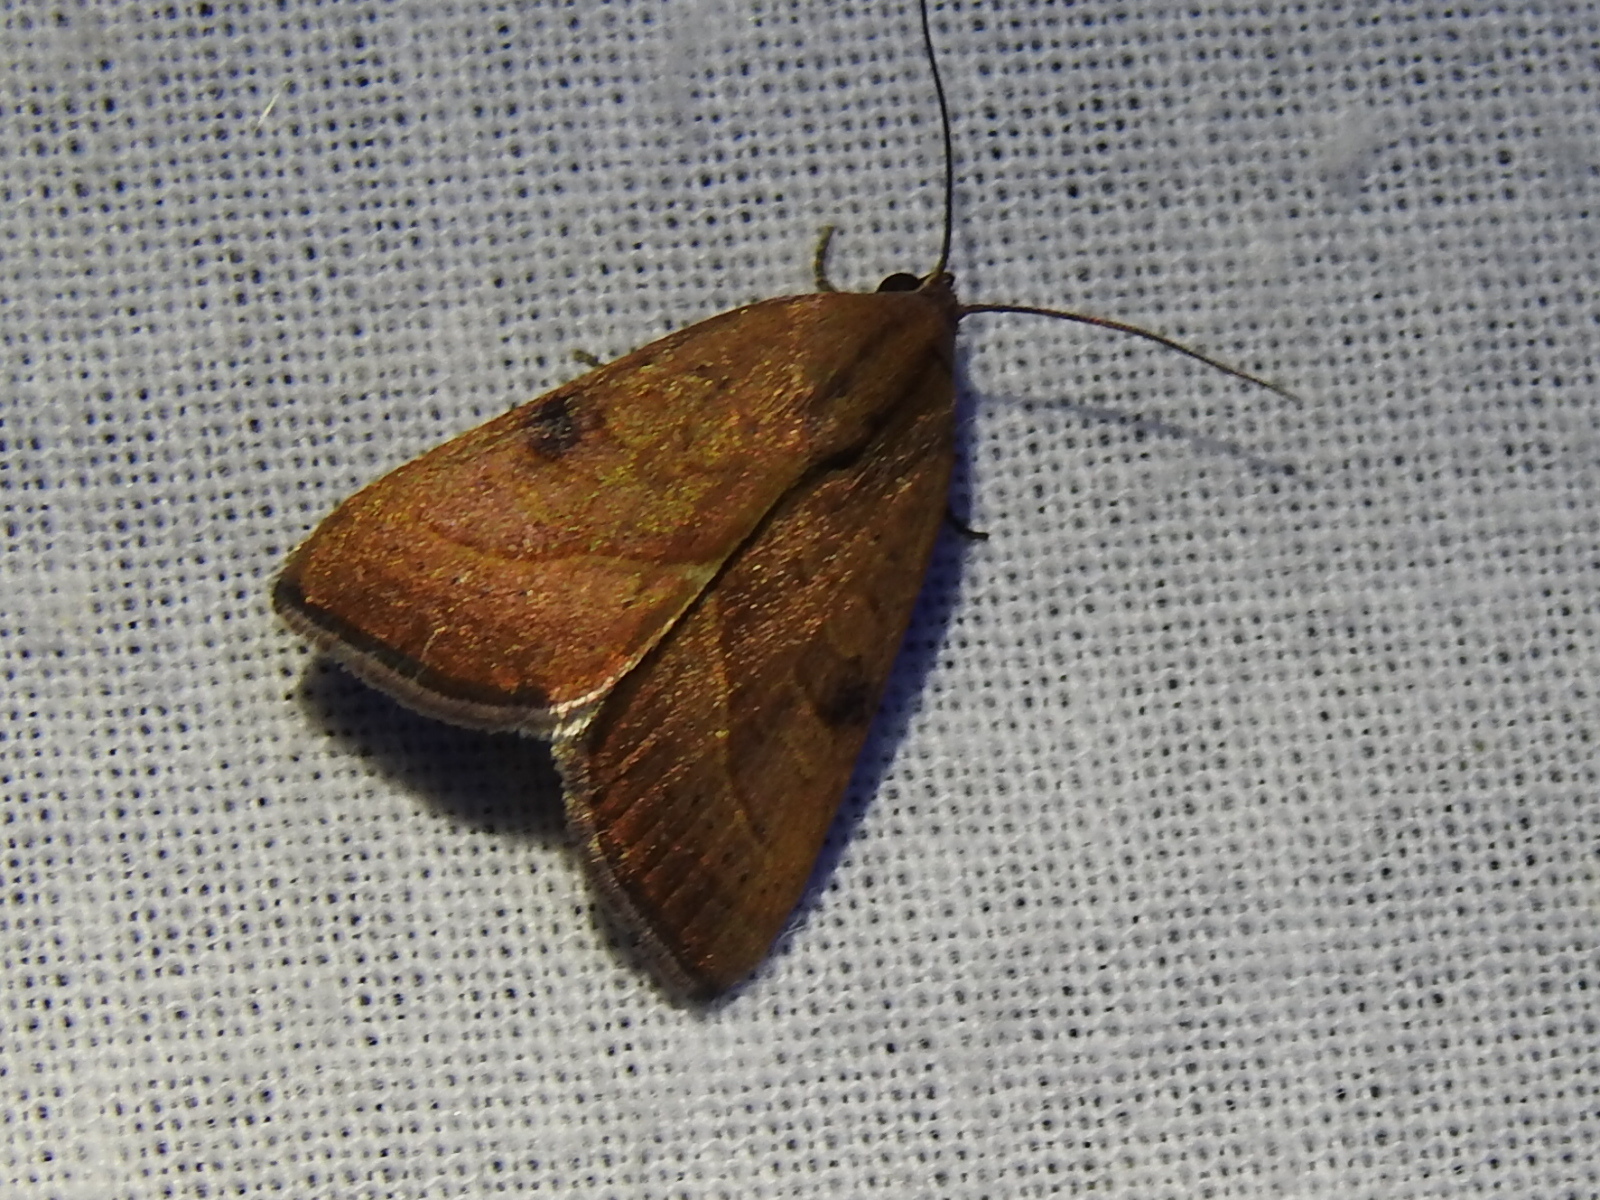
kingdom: Animalia
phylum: Arthropoda
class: Insecta
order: Lepidoptera
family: Noctuidae
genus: Galgula
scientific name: Galgula partita
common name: Wedgeling
